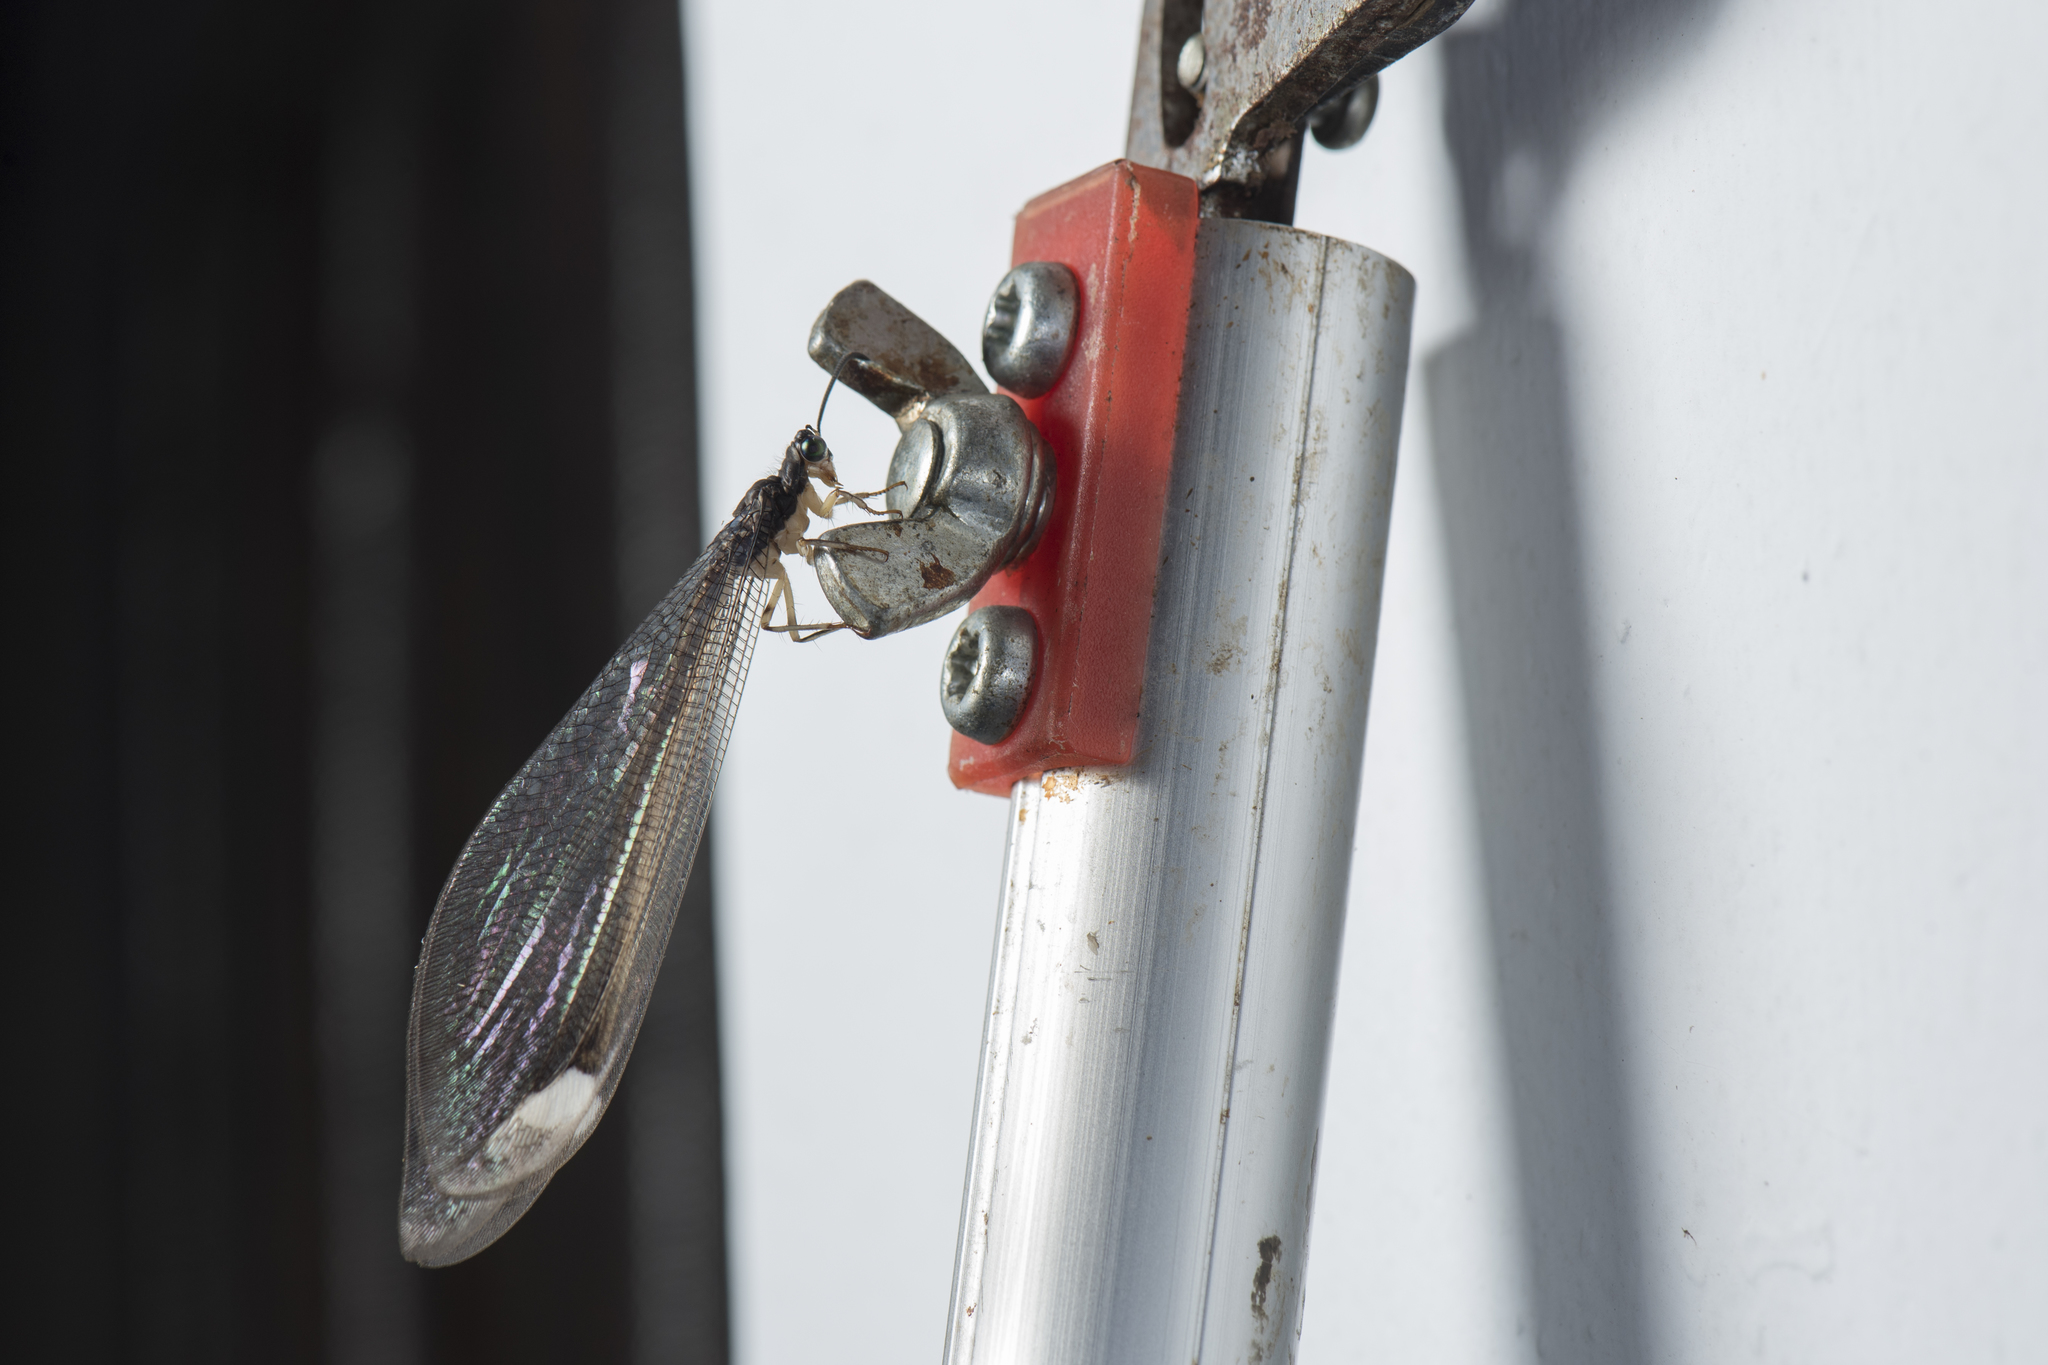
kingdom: Animalia
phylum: Arthropoda
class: Insecta
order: Neuroptera
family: Myrmeleontidae
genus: Baliga
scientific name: Baliga asakurae
